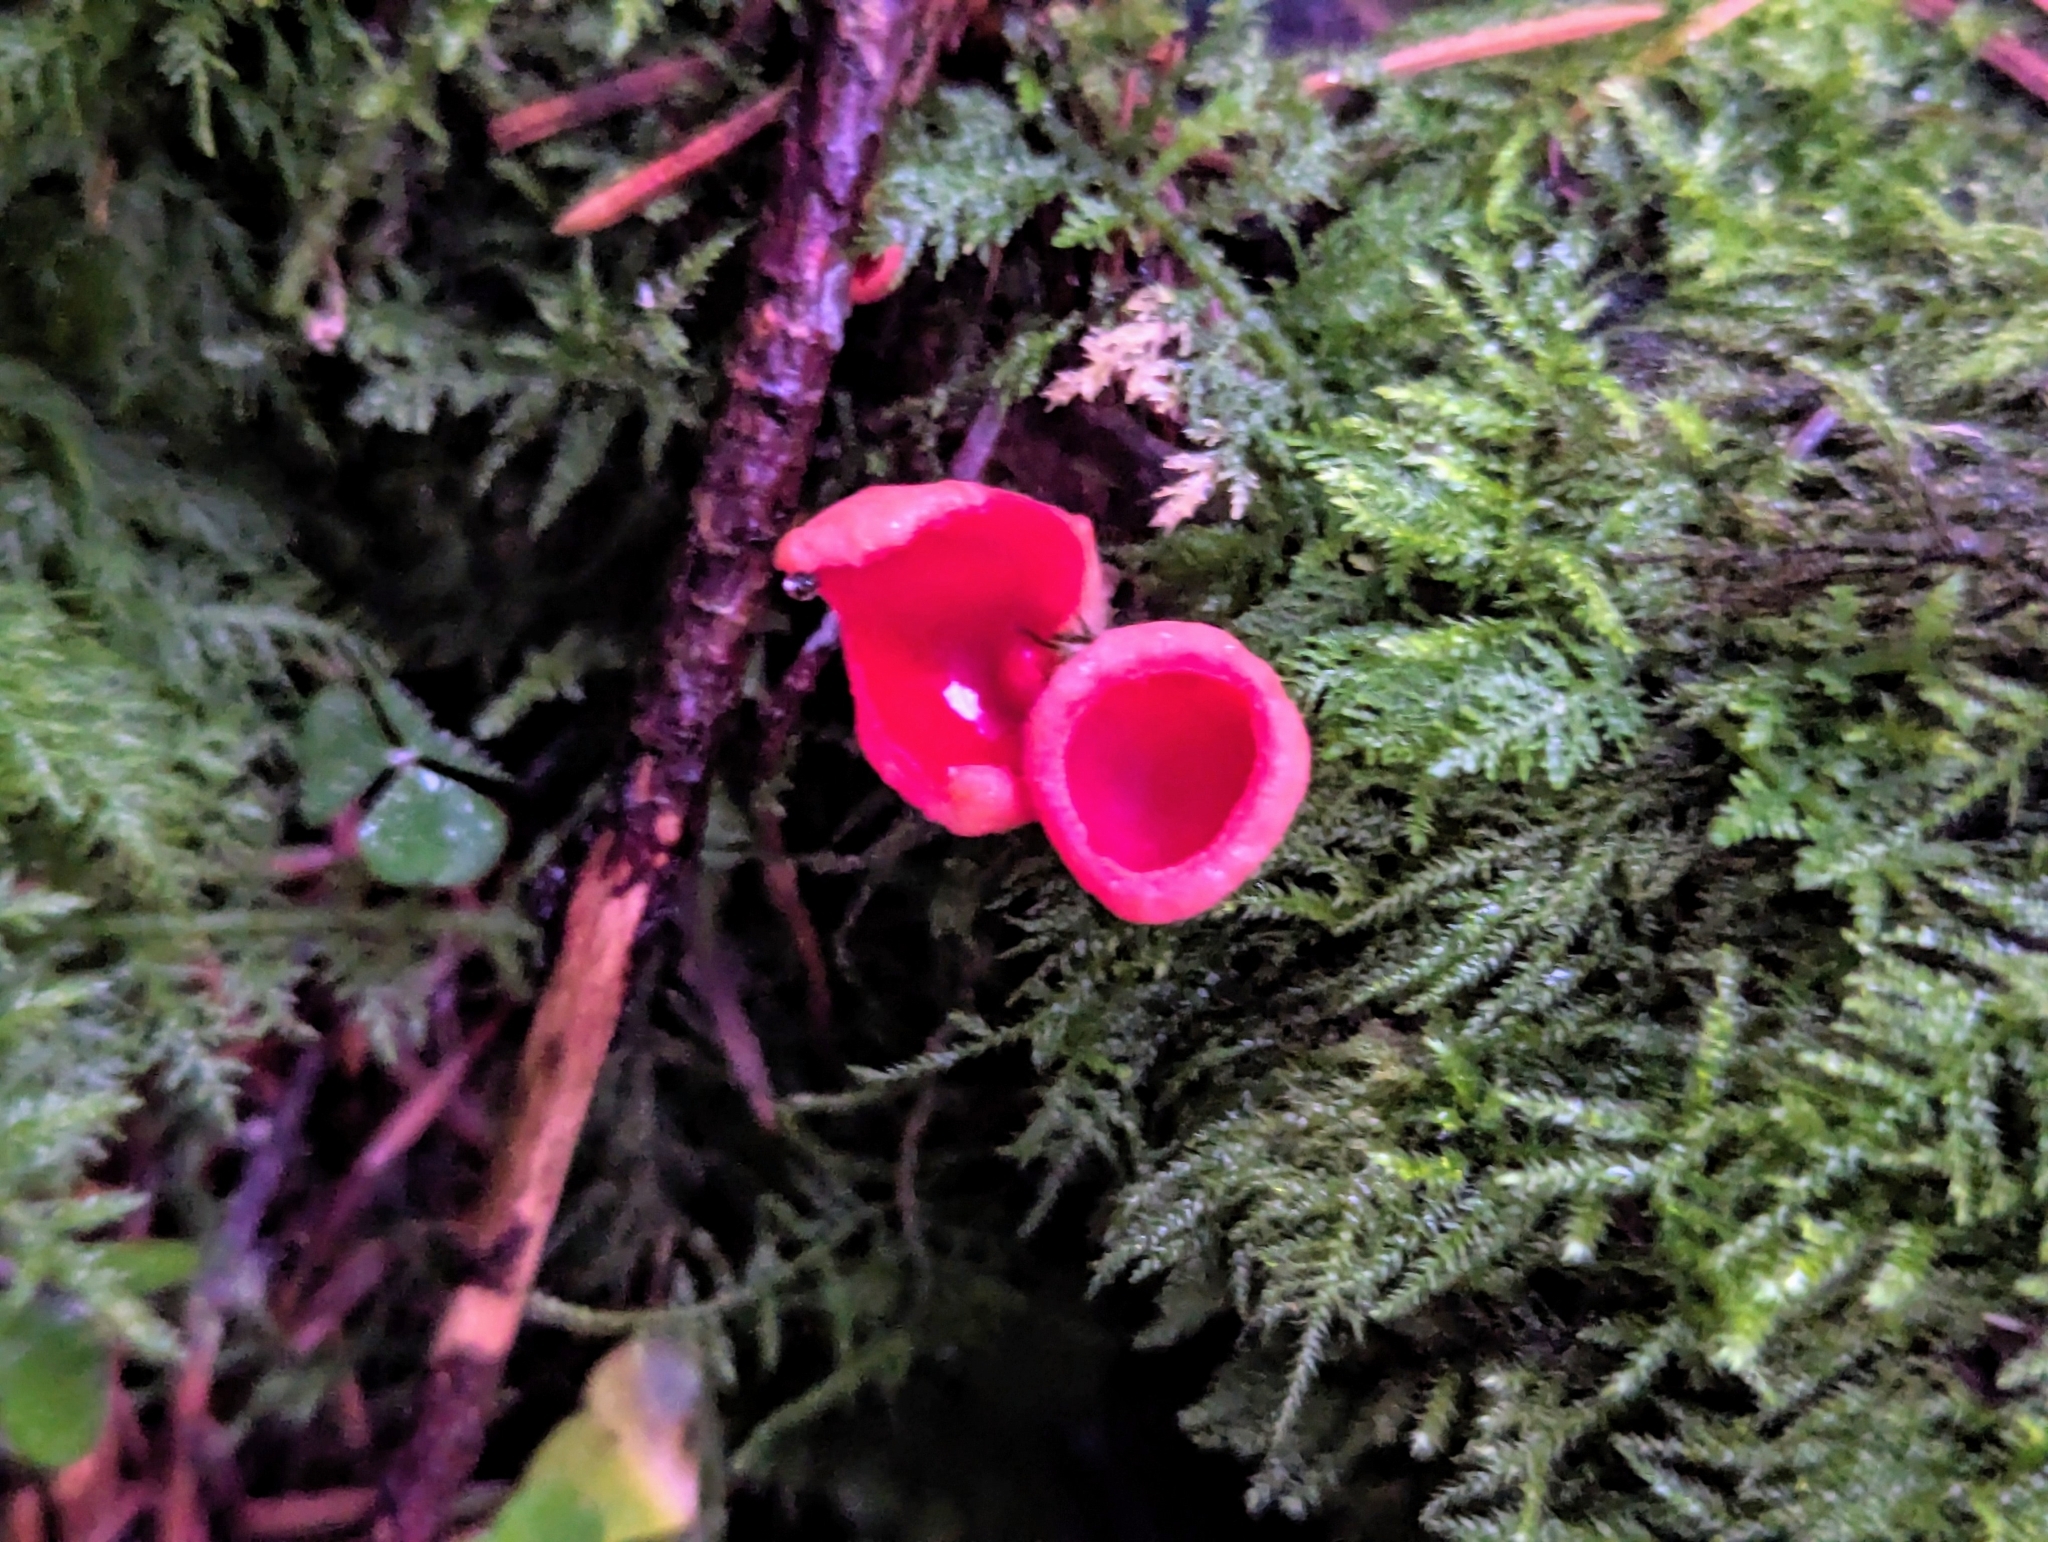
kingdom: Fungi
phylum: Ascomycota
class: Pezizomycetes
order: Pezizales
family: Sarcoscyphaceae
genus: Sarcoscypha
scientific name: Sarcoscypha
